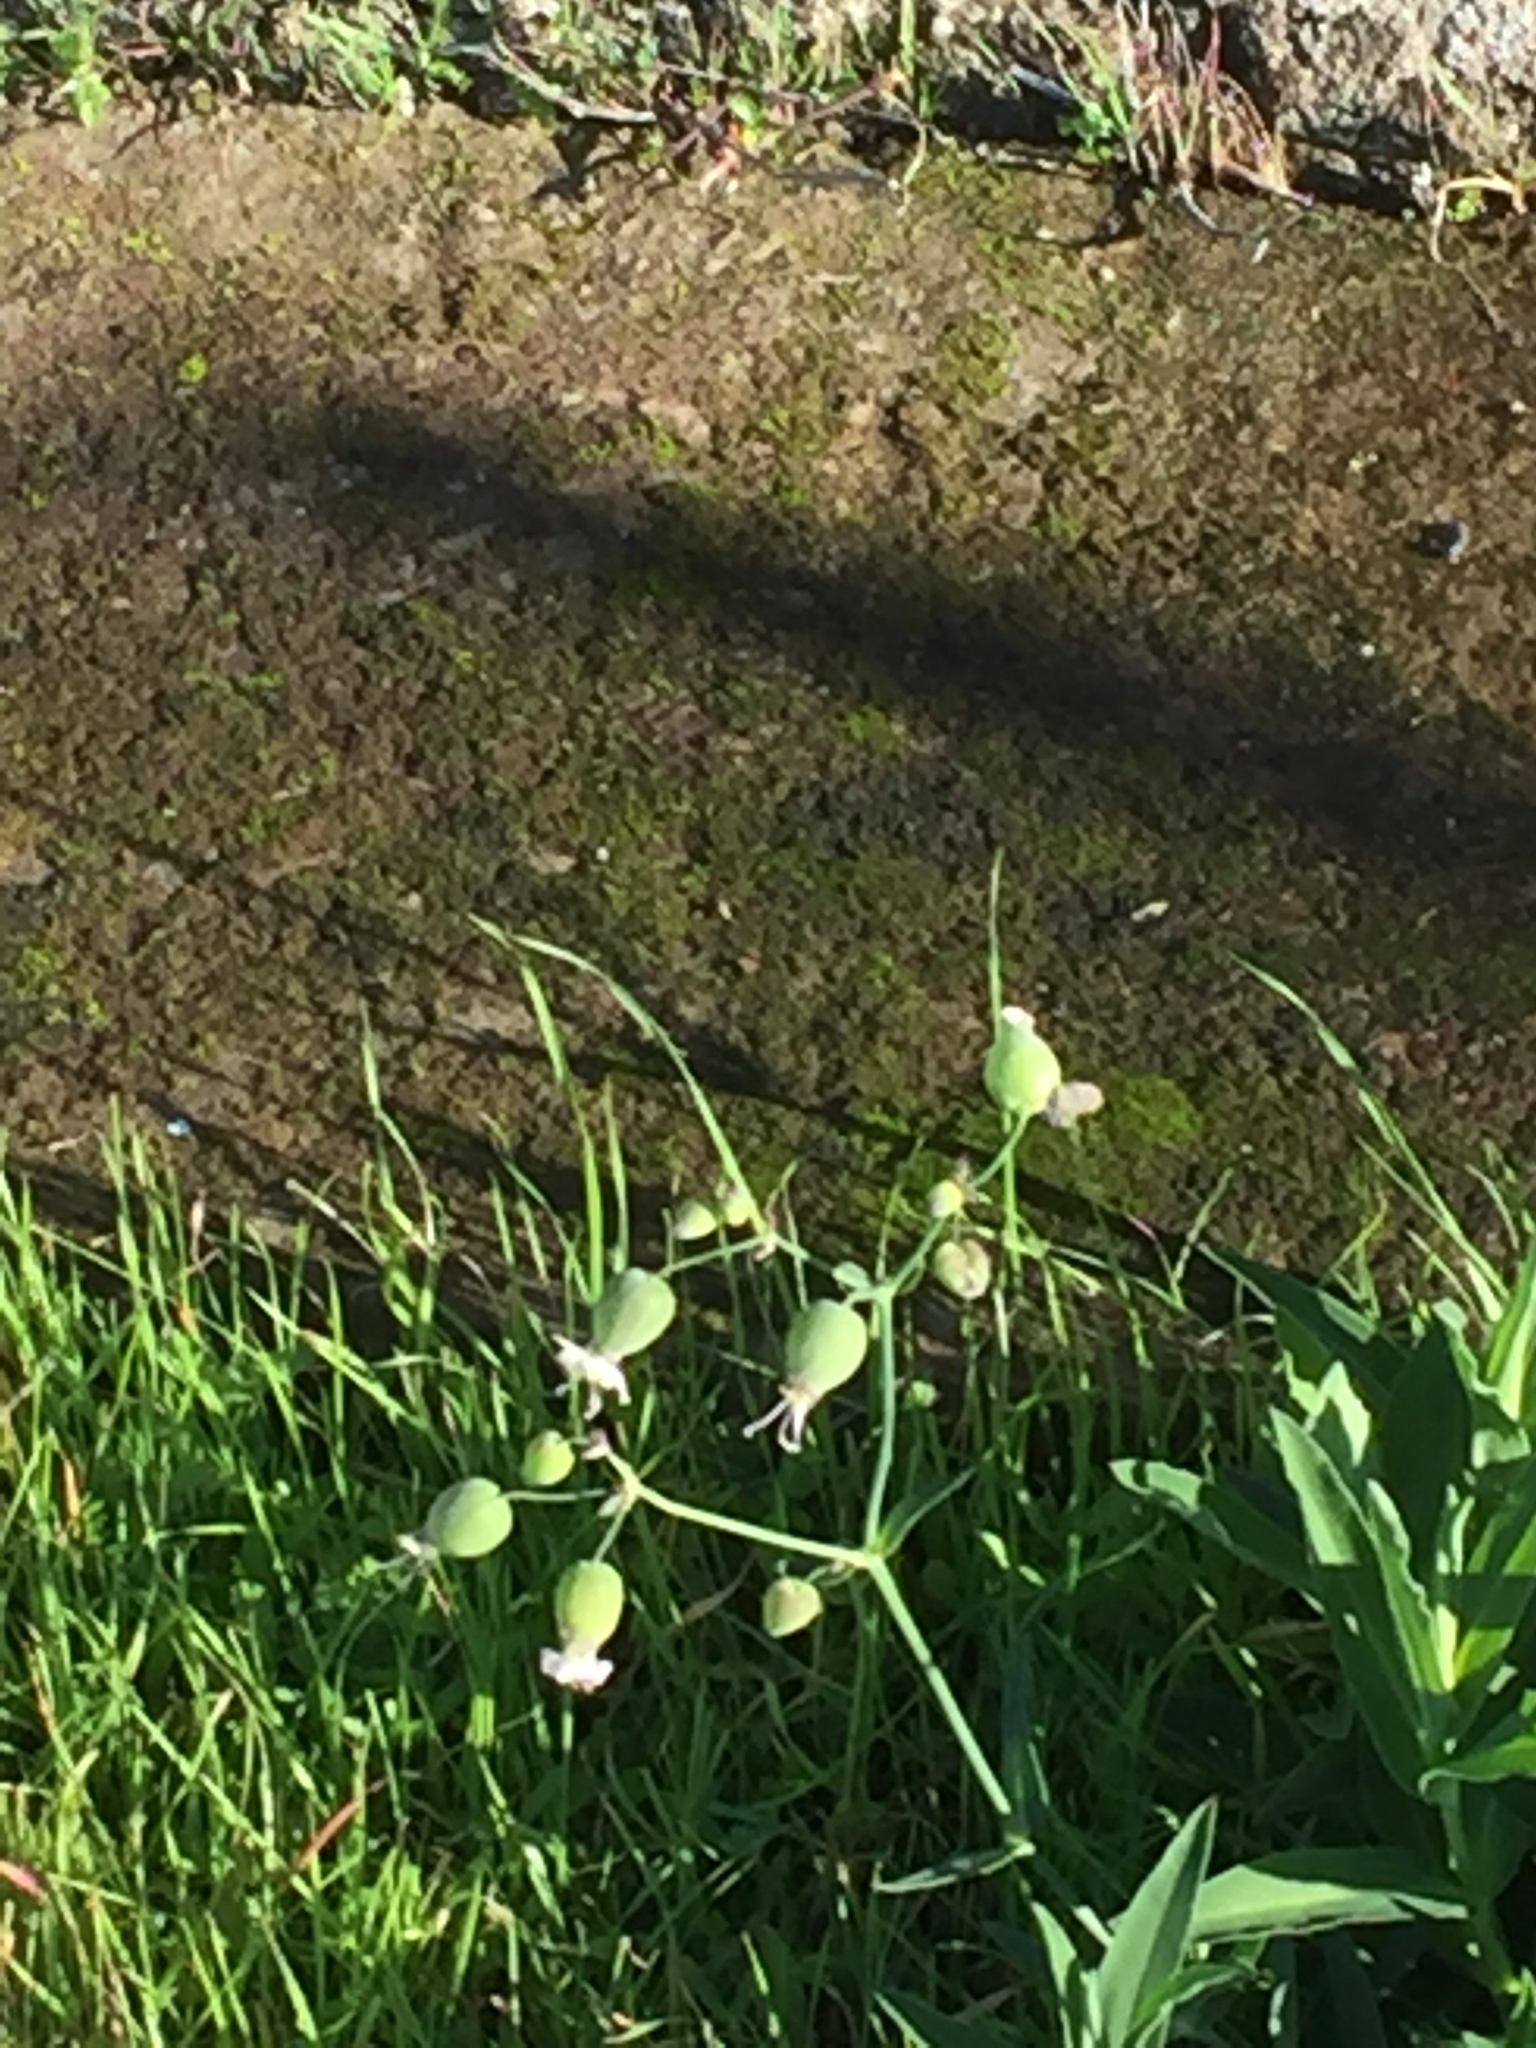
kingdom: Plantae
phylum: Tracheophyta
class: Magnoliopsida
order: Caryophyllales
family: Caryophyllaceae
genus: Silene
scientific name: Silene vulgaris
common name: Bladder campion
